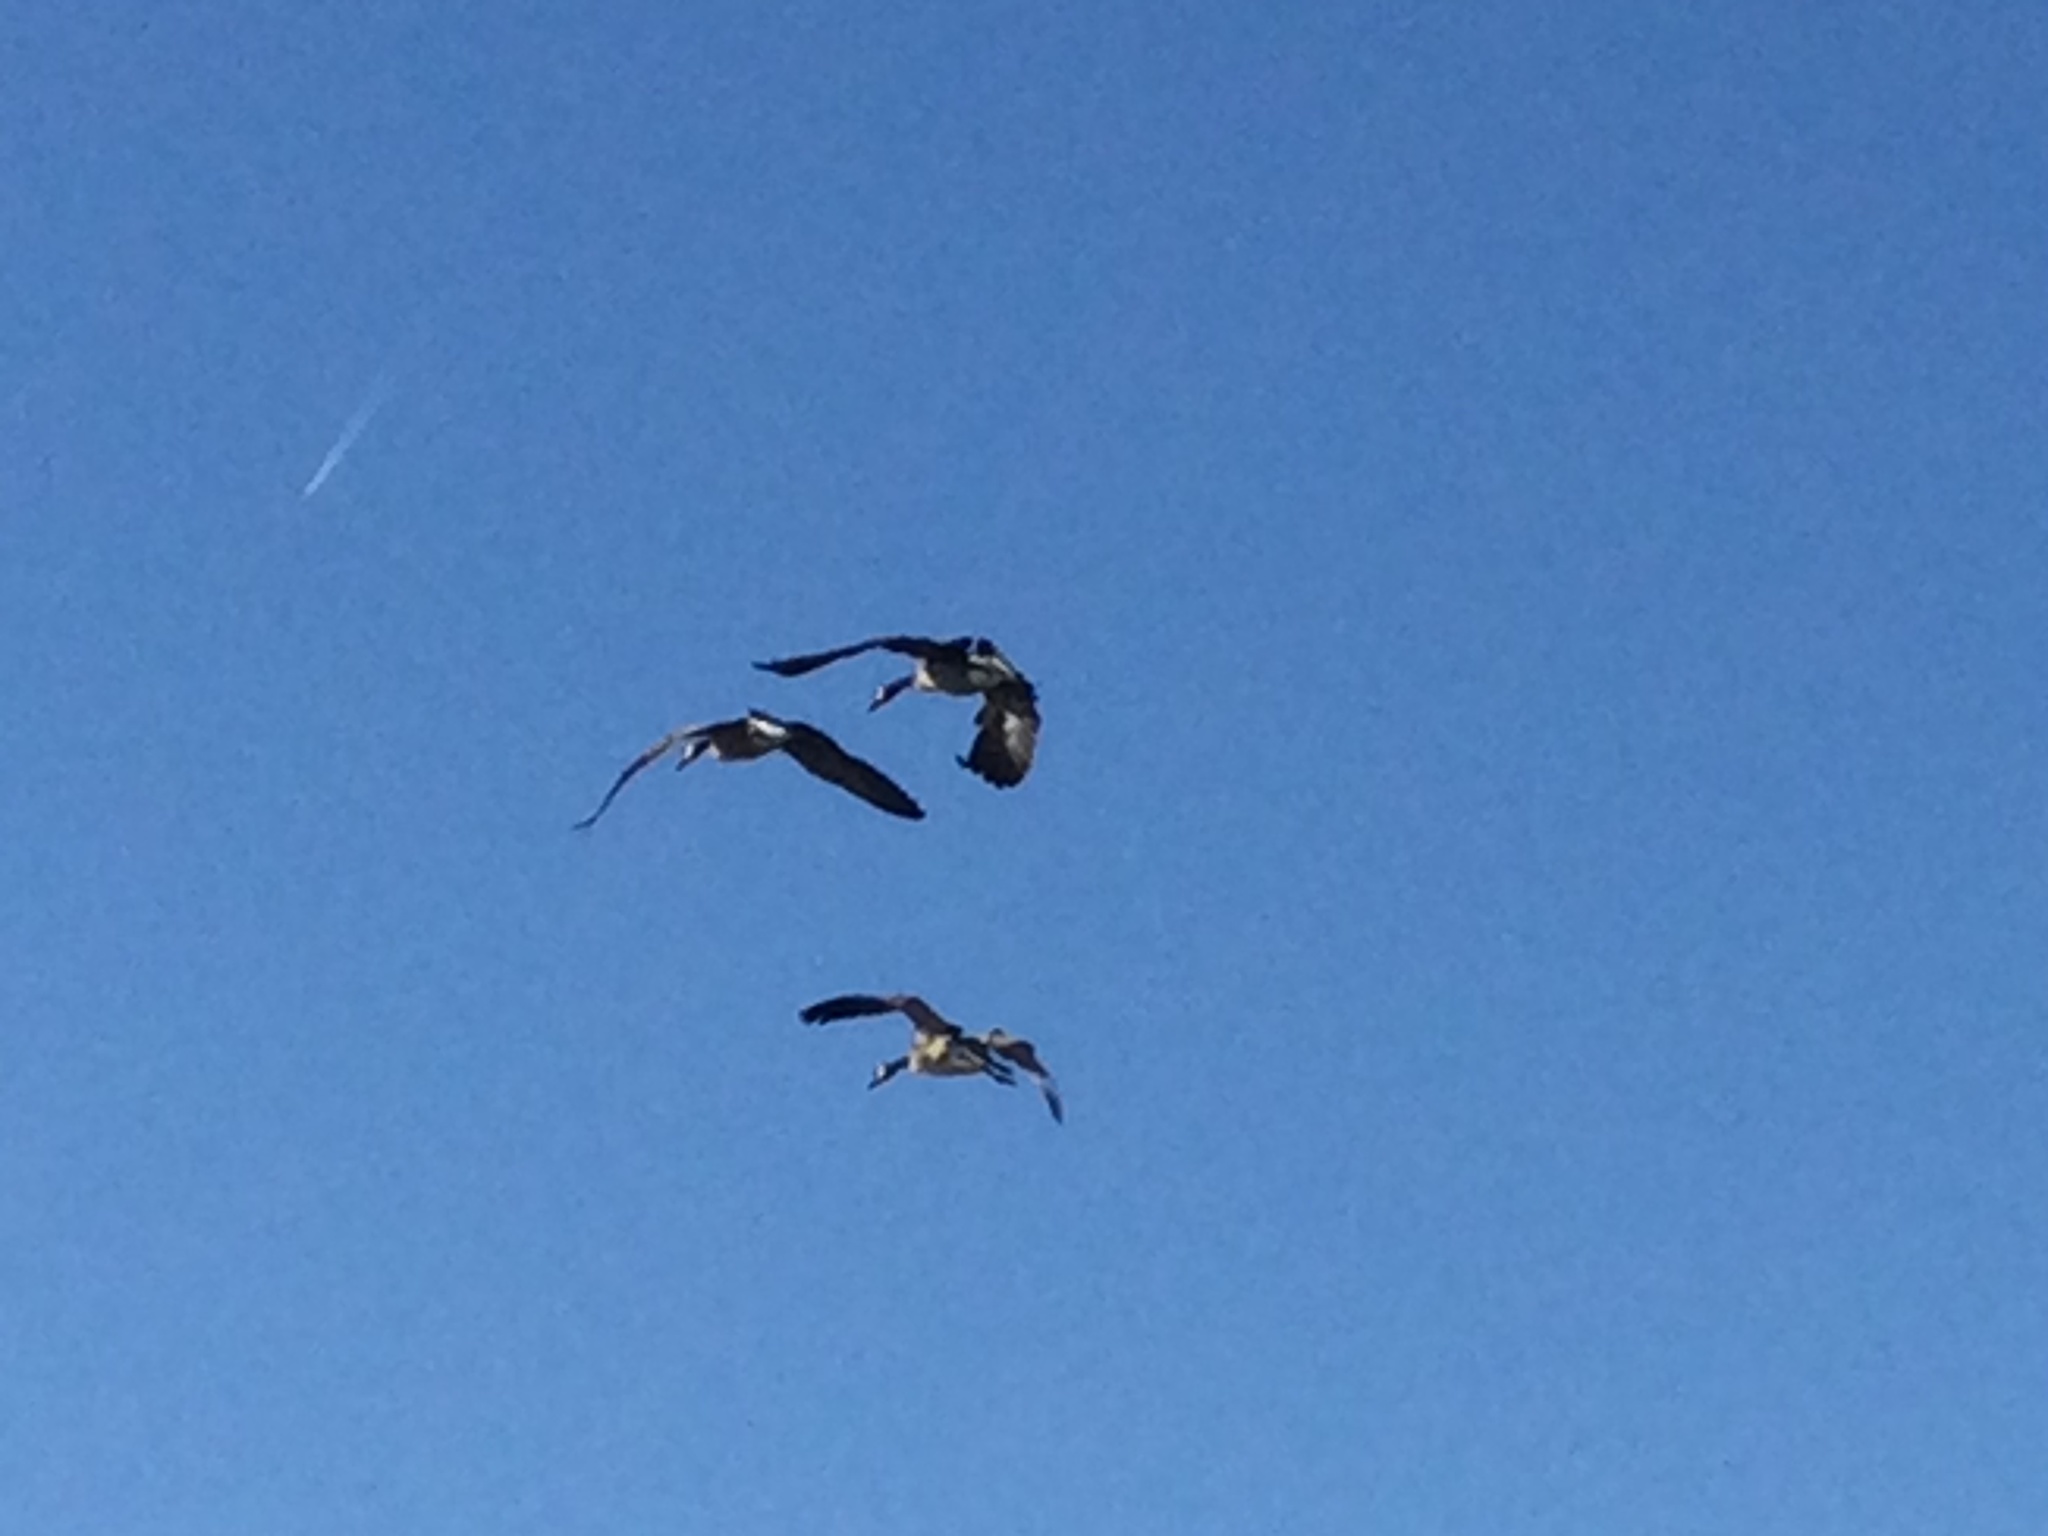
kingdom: Animalia
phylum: Chordata
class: Aves
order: Anseriformes
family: Anatidae
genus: Branta
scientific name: Branta canadensis
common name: Canada goose
